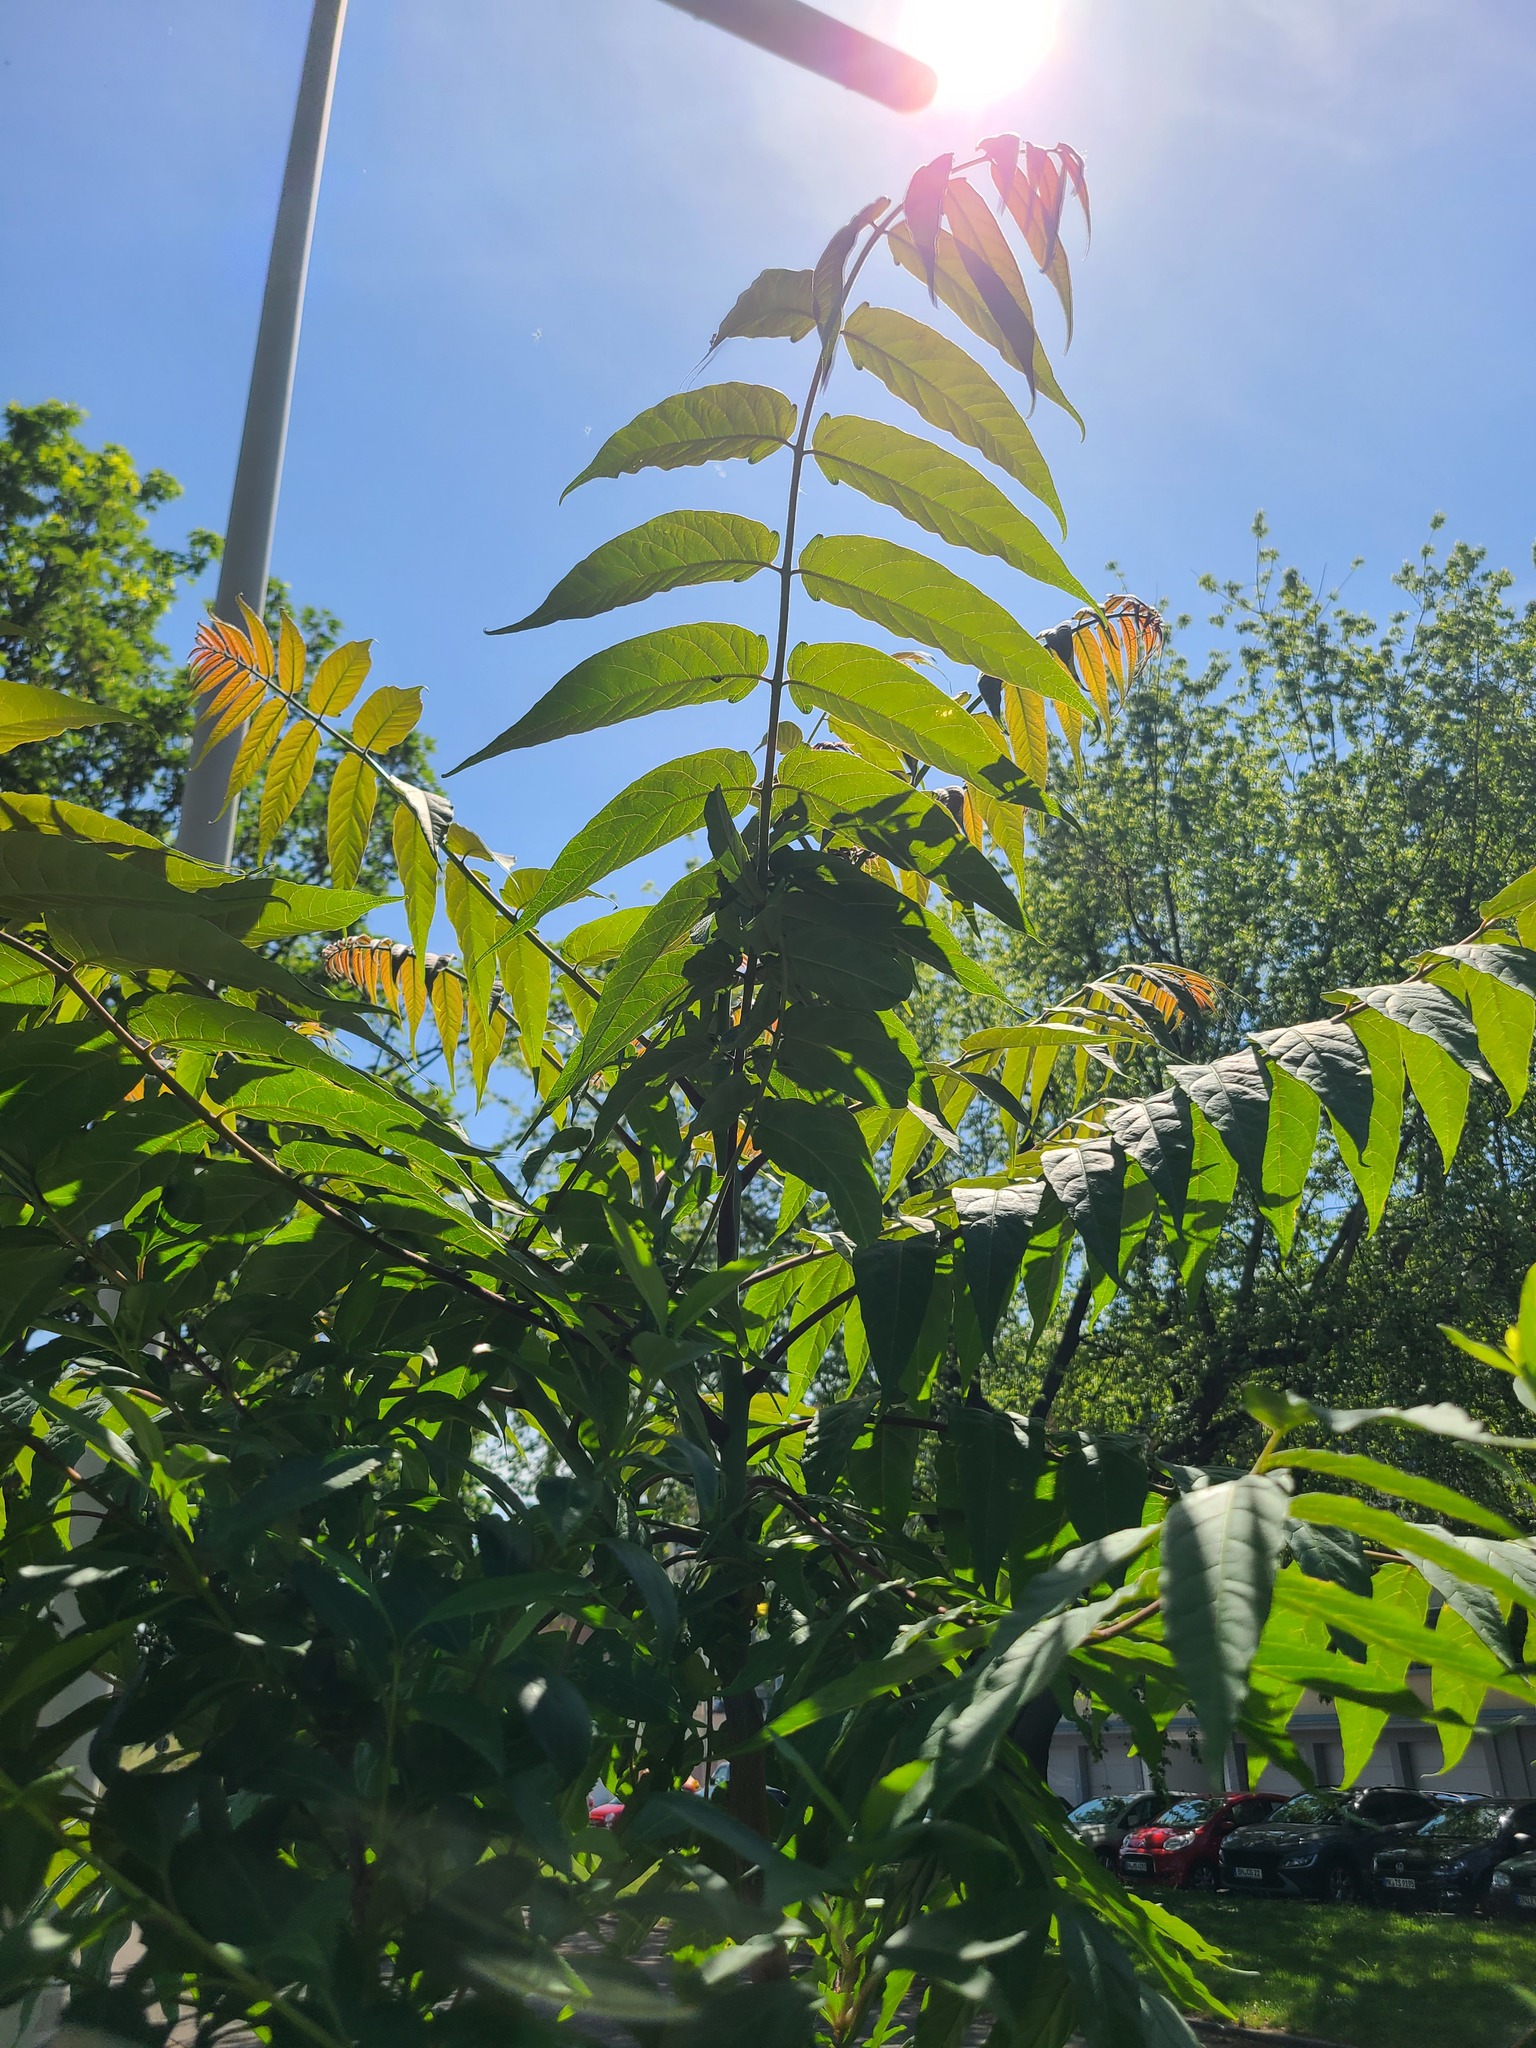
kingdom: Plantae
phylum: Tracheophyta
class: Magnoliopsida
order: Sapindales
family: Simaroubaceae
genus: Ailanthus
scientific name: Ailanthus altissima
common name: Tree-of-heaven
